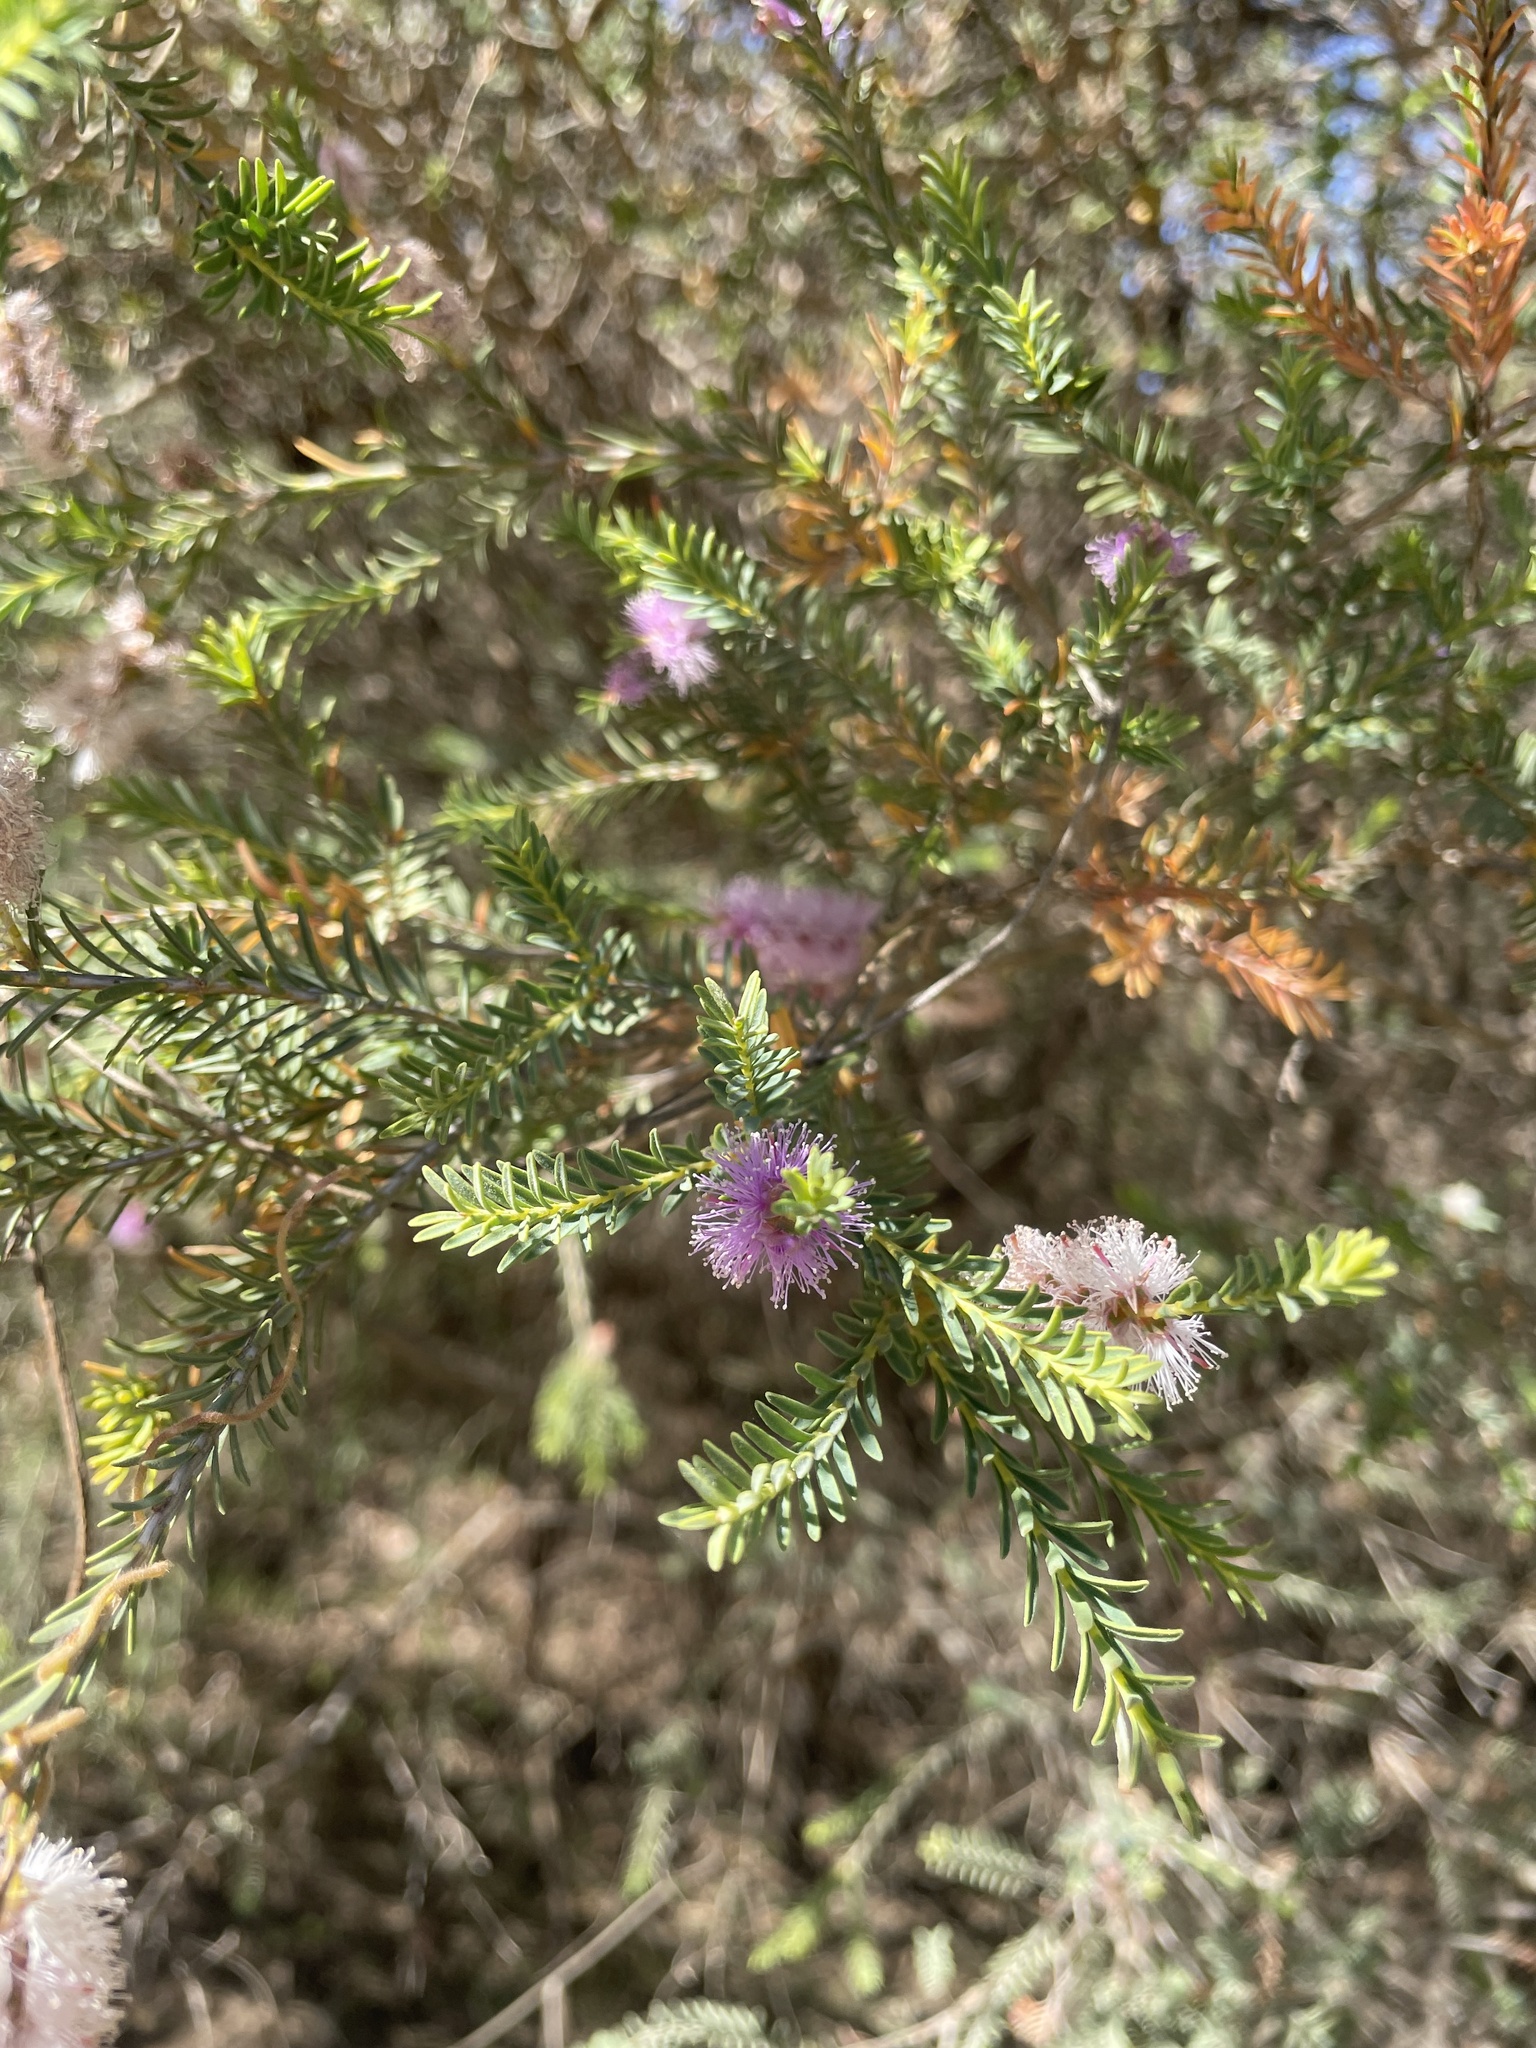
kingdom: Plantae
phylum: Tracheophyta
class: Magnoliopsida
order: Myrtales
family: Myrtaceae
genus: Melaleuca
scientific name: Melaleuca decussata
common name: Cross-leaf honey myrtle
